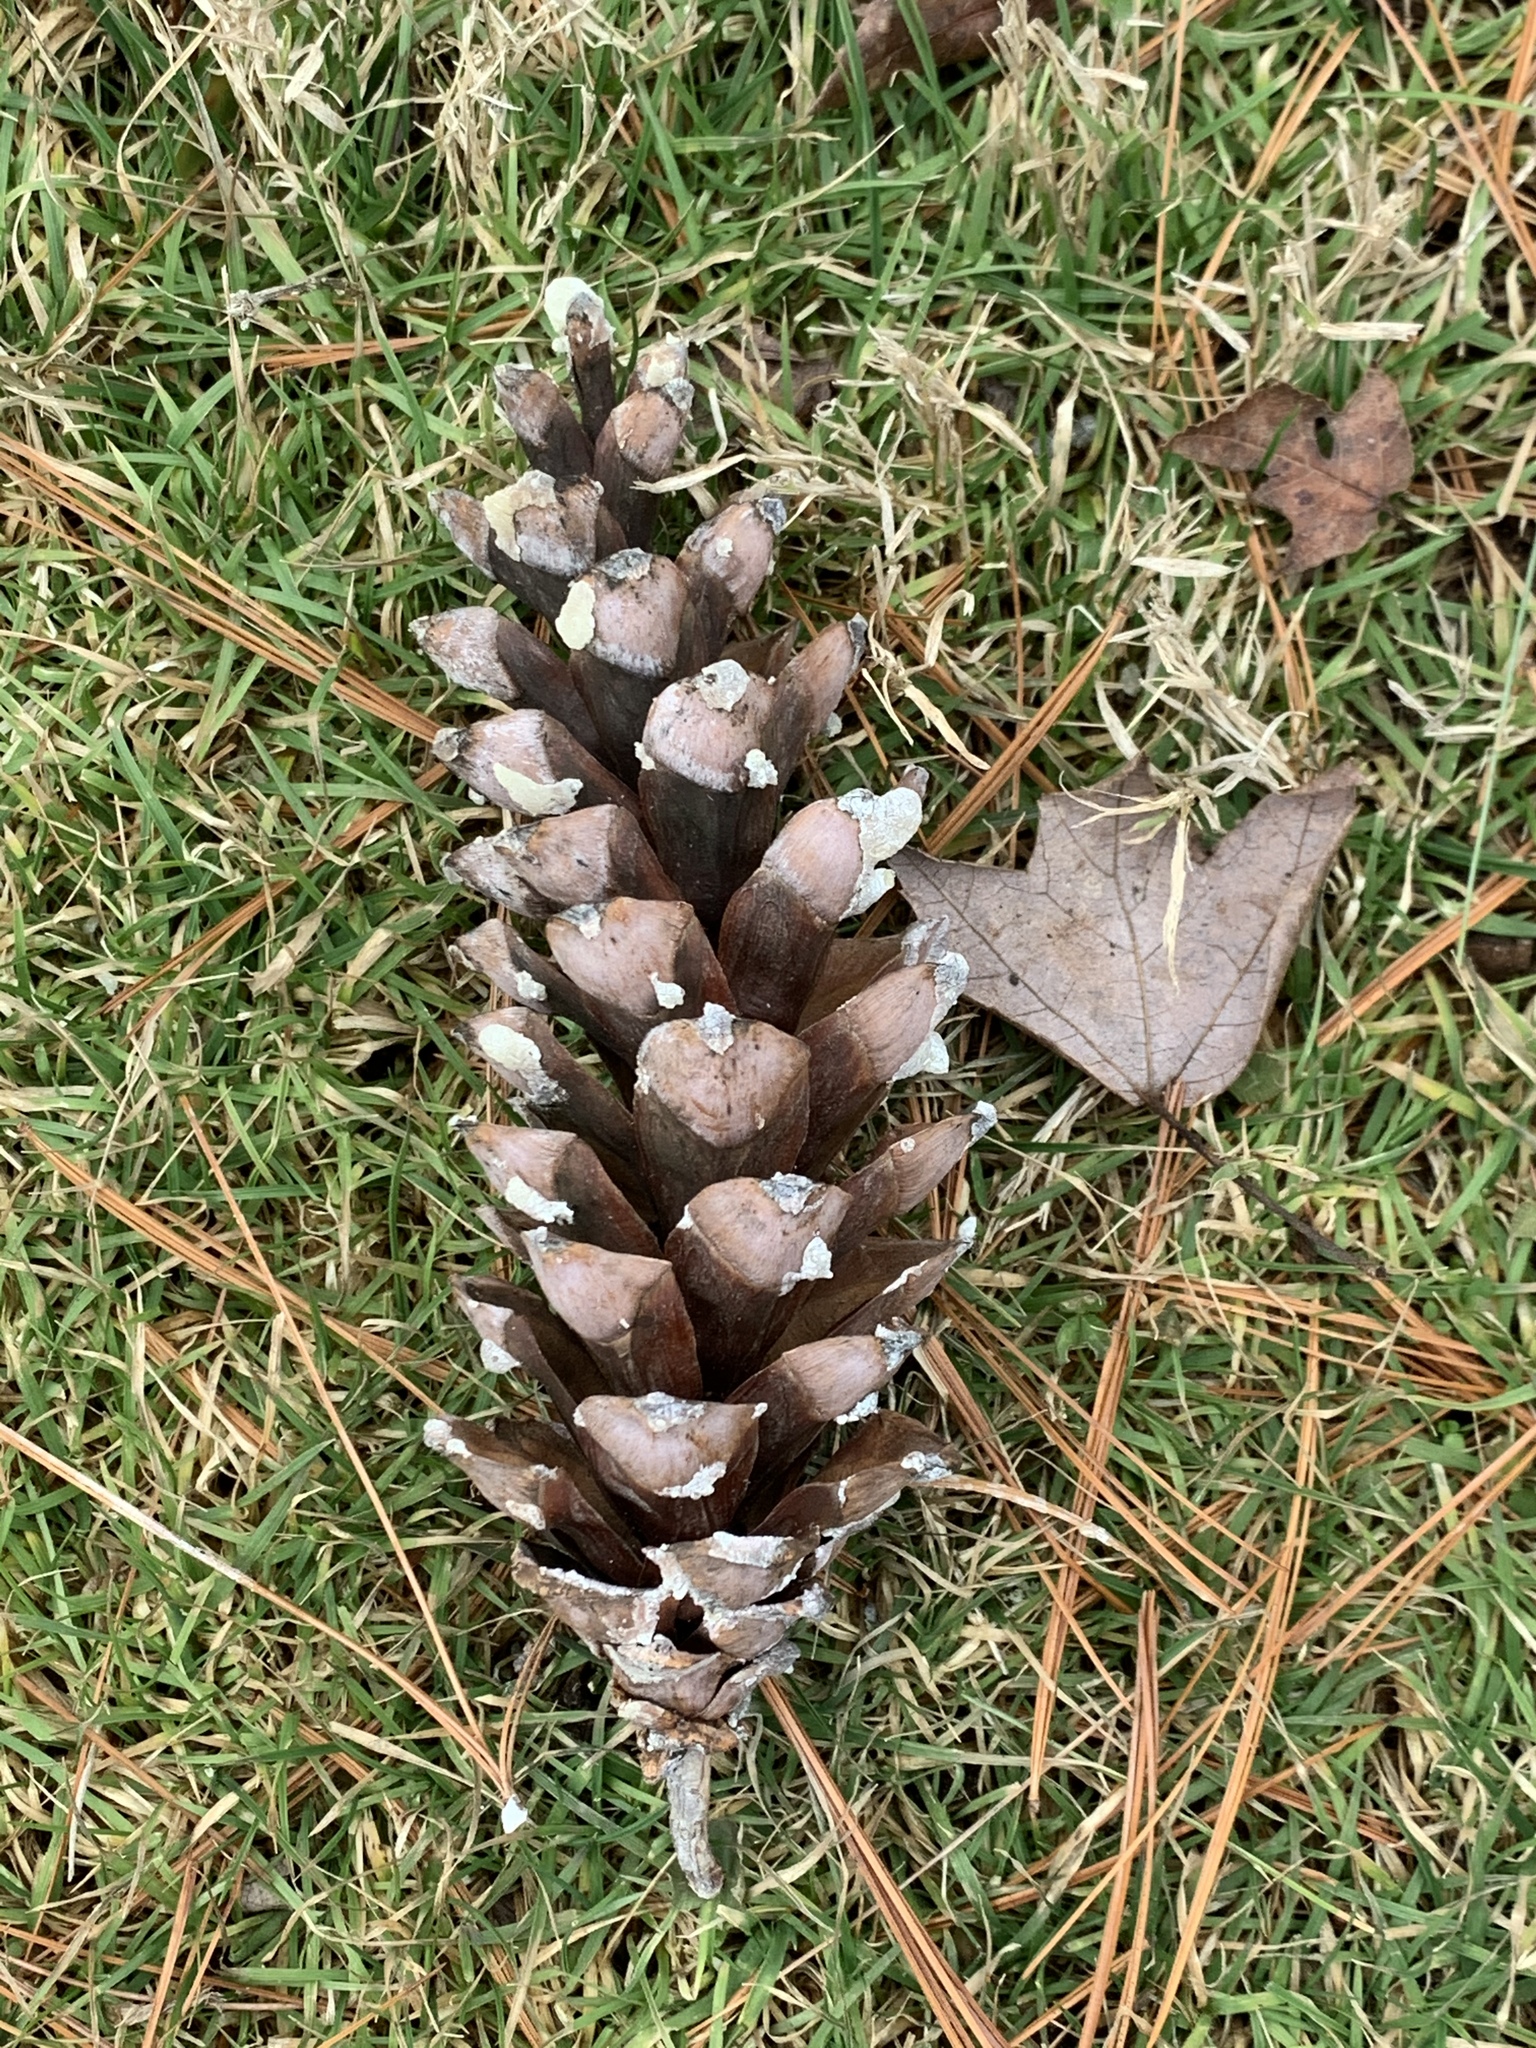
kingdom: Plantae
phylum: Tracheophyta
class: Pinopsida
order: Pinales
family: Pinaceae
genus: Pinus
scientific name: Pinus strobus
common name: Weymouth pine
